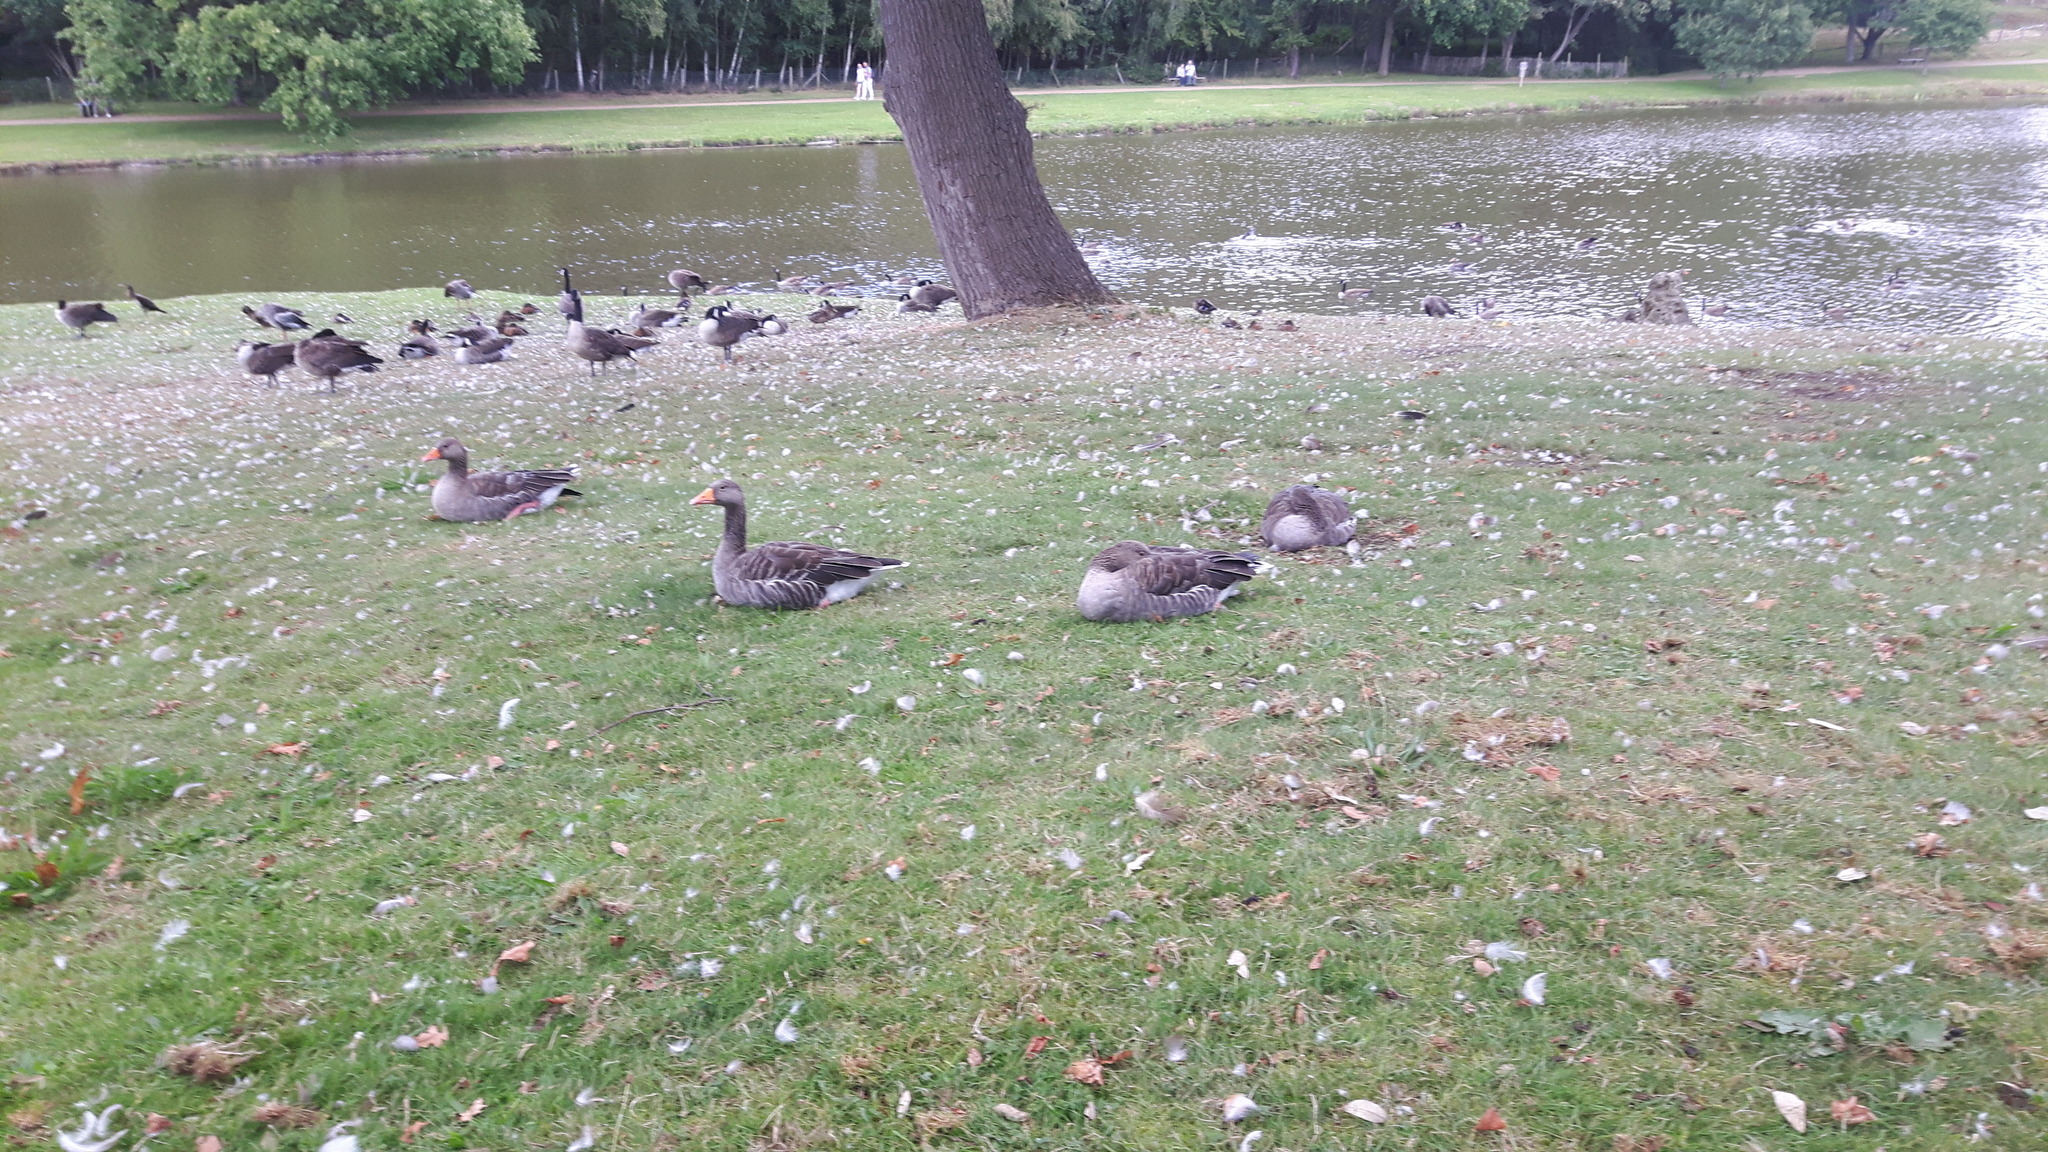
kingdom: Animalia
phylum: Chordata
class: Aves
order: Anseriformes
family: Anatidae
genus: Anser
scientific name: Anser anser
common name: Greylag goose
